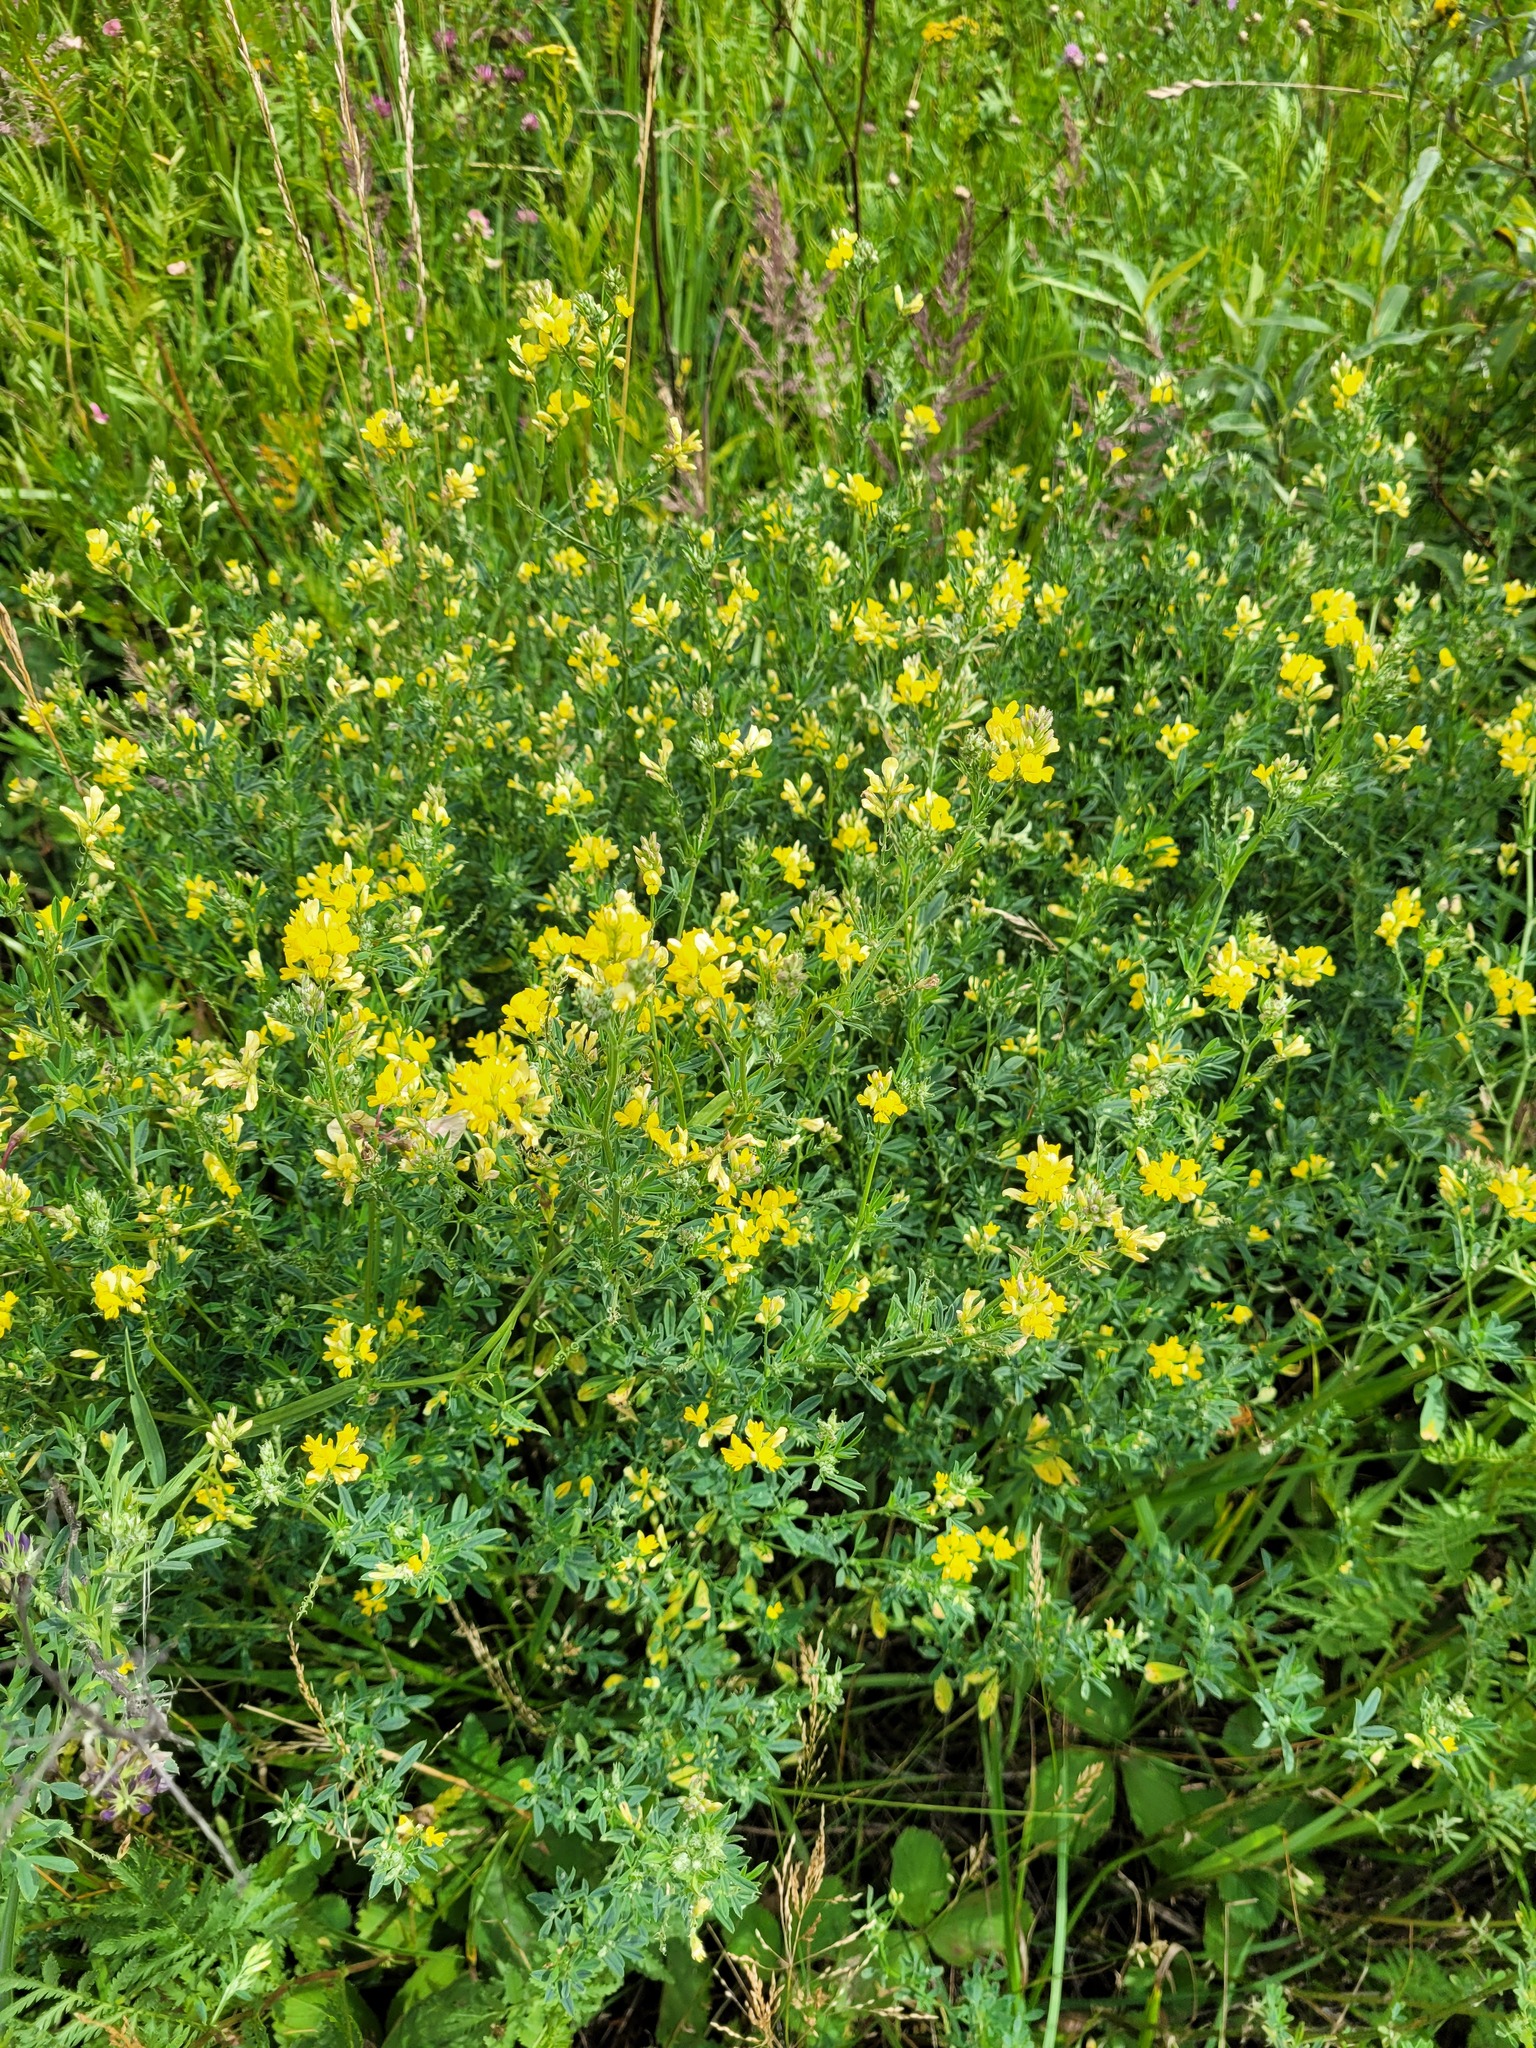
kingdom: Plantae
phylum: Tracheophyta
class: Magnoliopsida
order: Fabales
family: Fabaceae
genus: Medicago
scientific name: Medicago varia
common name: Sand lucerne
